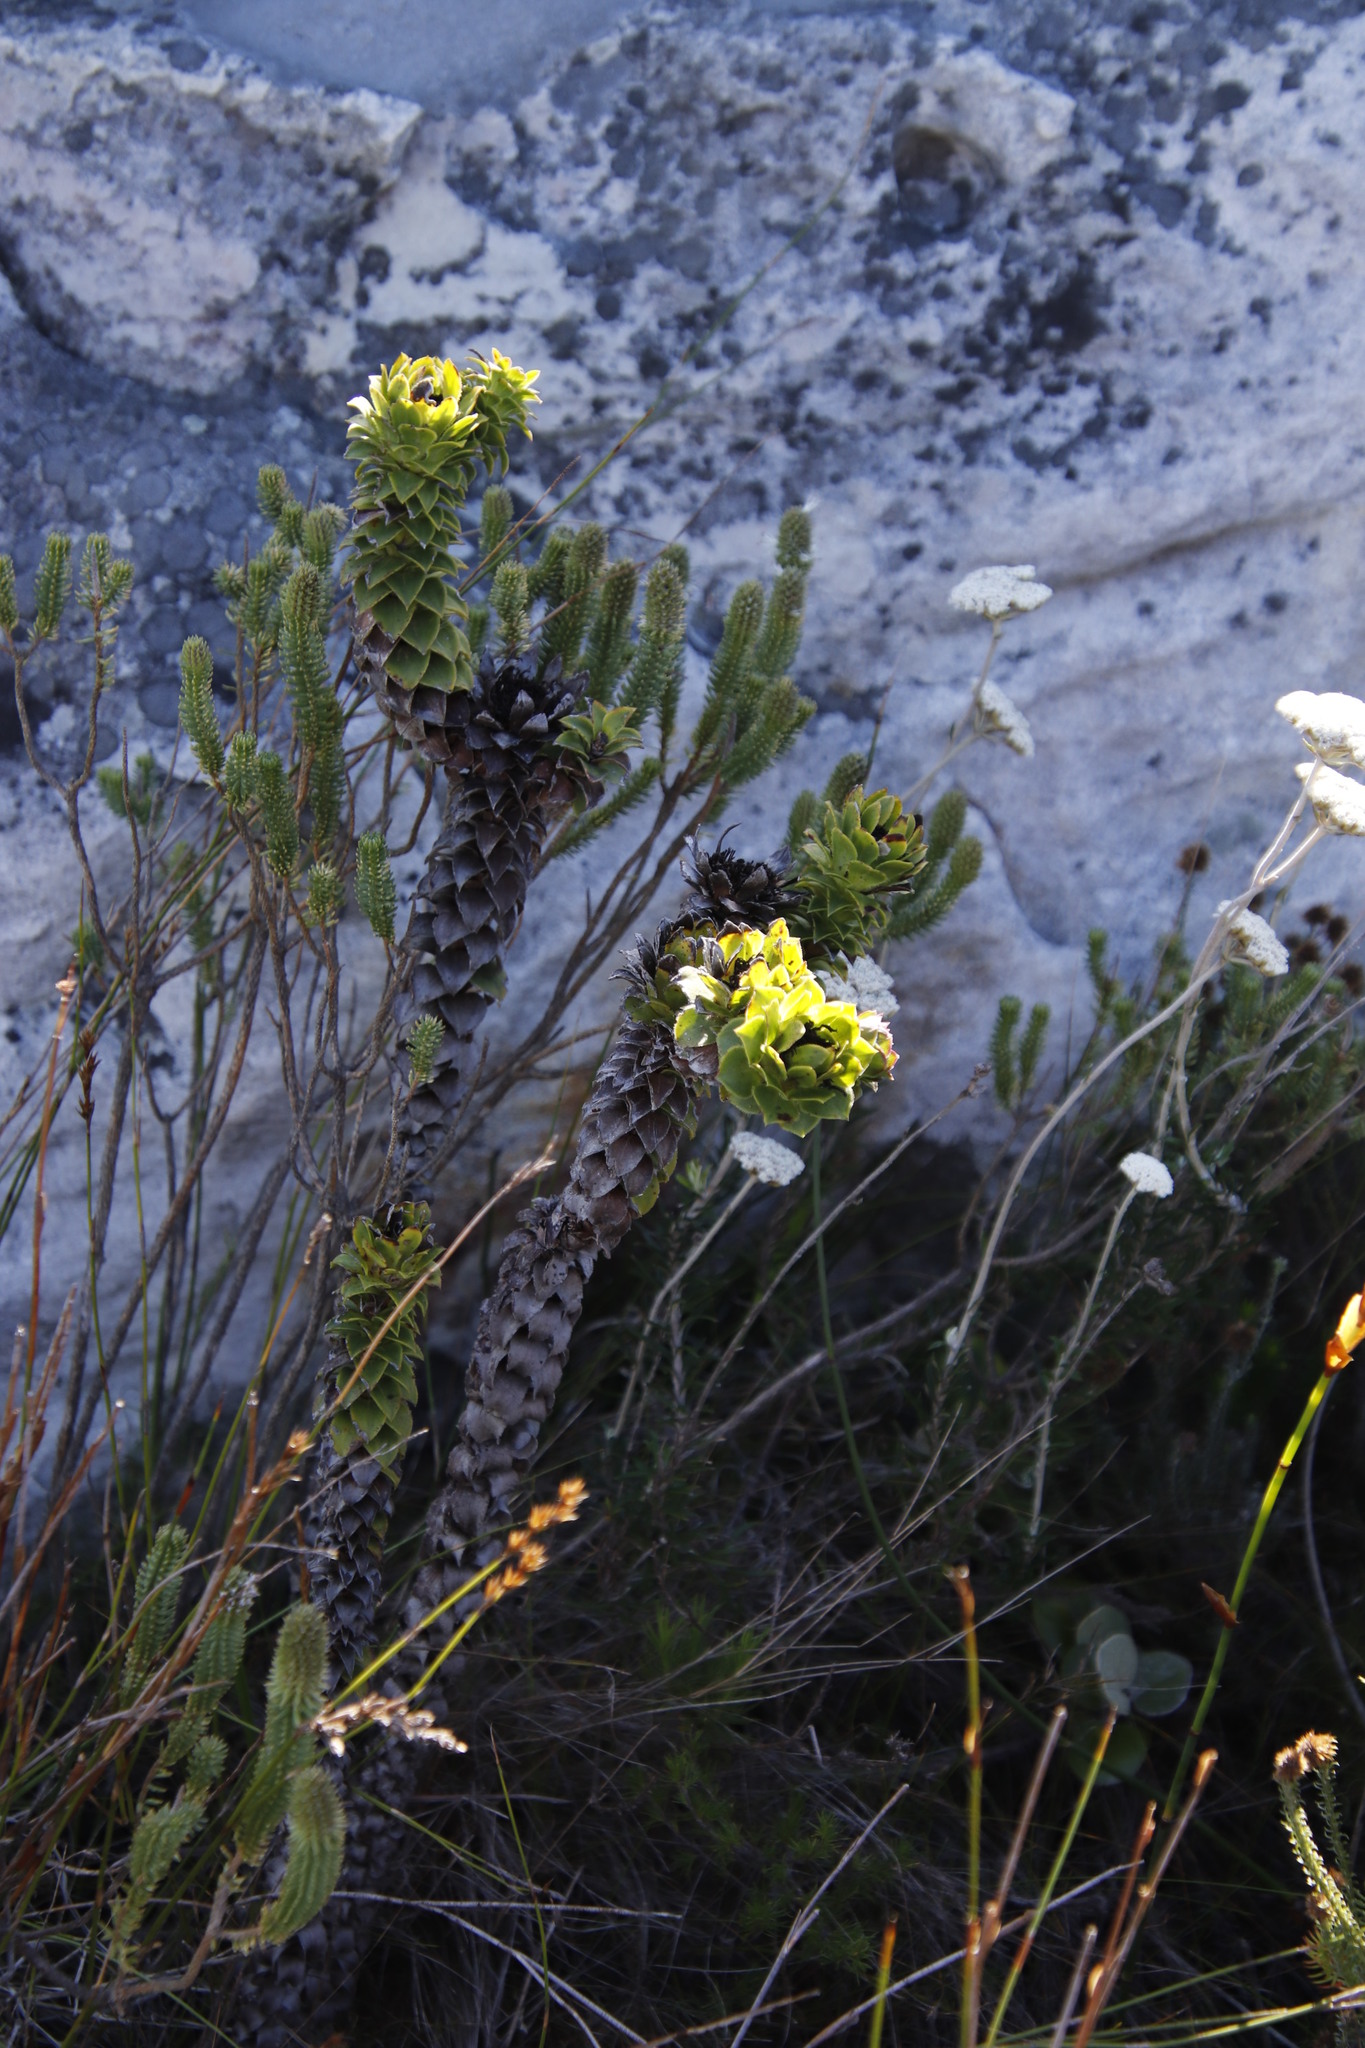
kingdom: Plantae
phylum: Tracheophyta
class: Magnoliopsida
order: Asterales
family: Asteraceae
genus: Oedera
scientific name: Oedera imbricata
